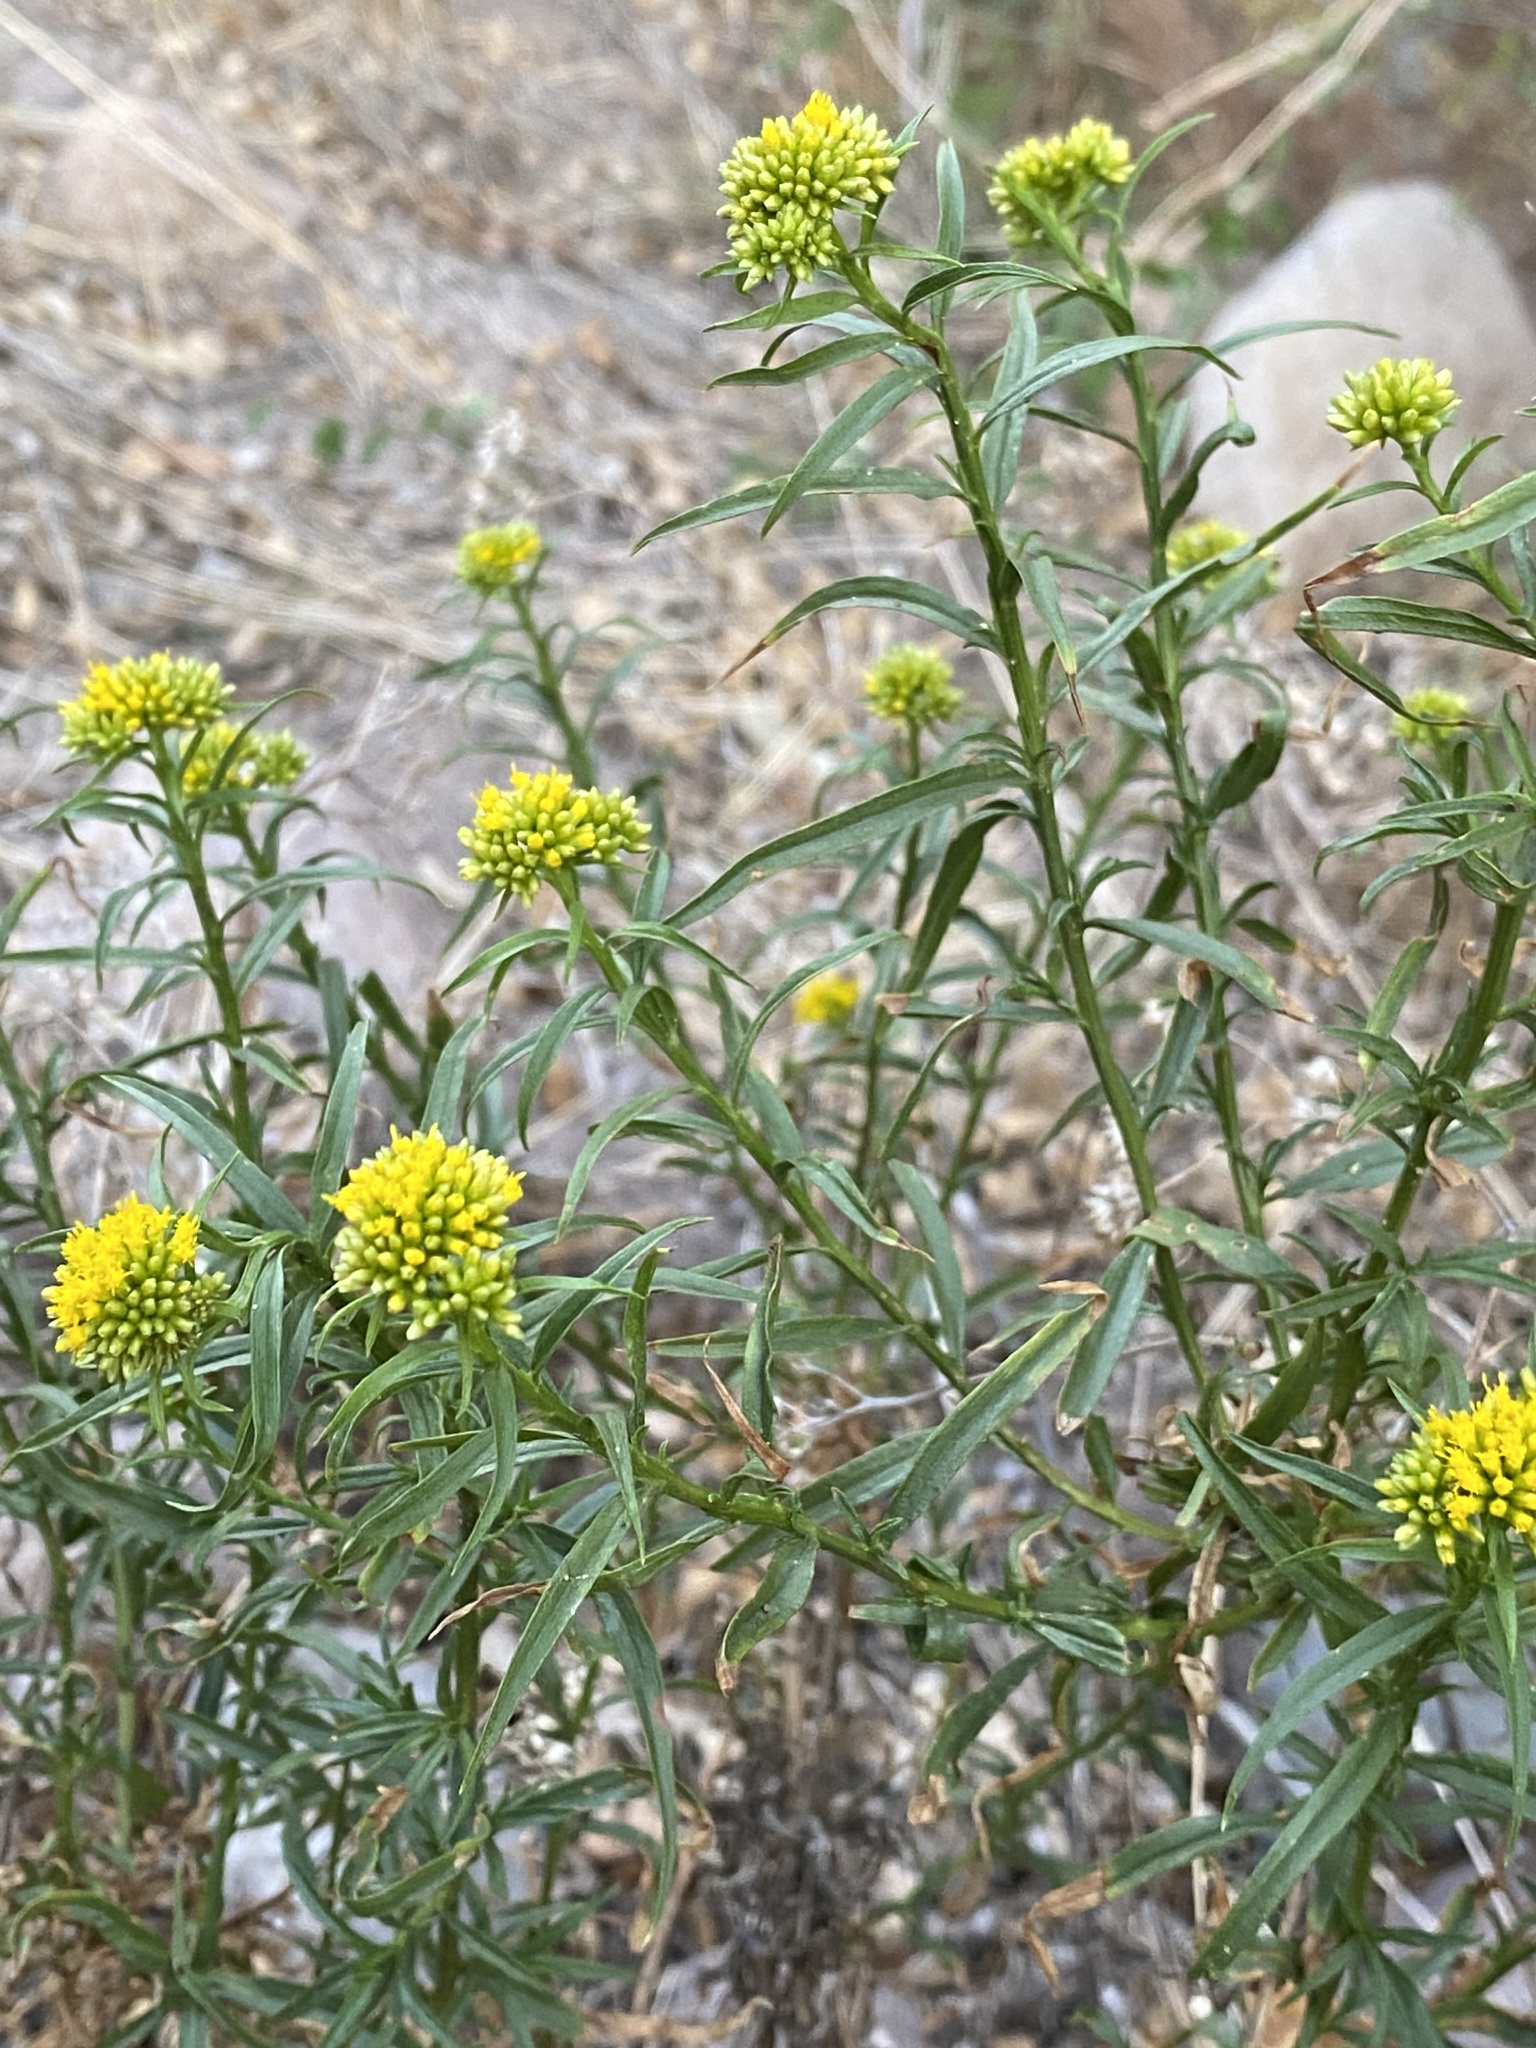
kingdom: Plantae
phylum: Tracheophyta
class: Magnoliopsida
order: Asterales
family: Asteraceae
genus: Gymnosperma
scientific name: Gymnosperma glutinosum
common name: Gumhead
